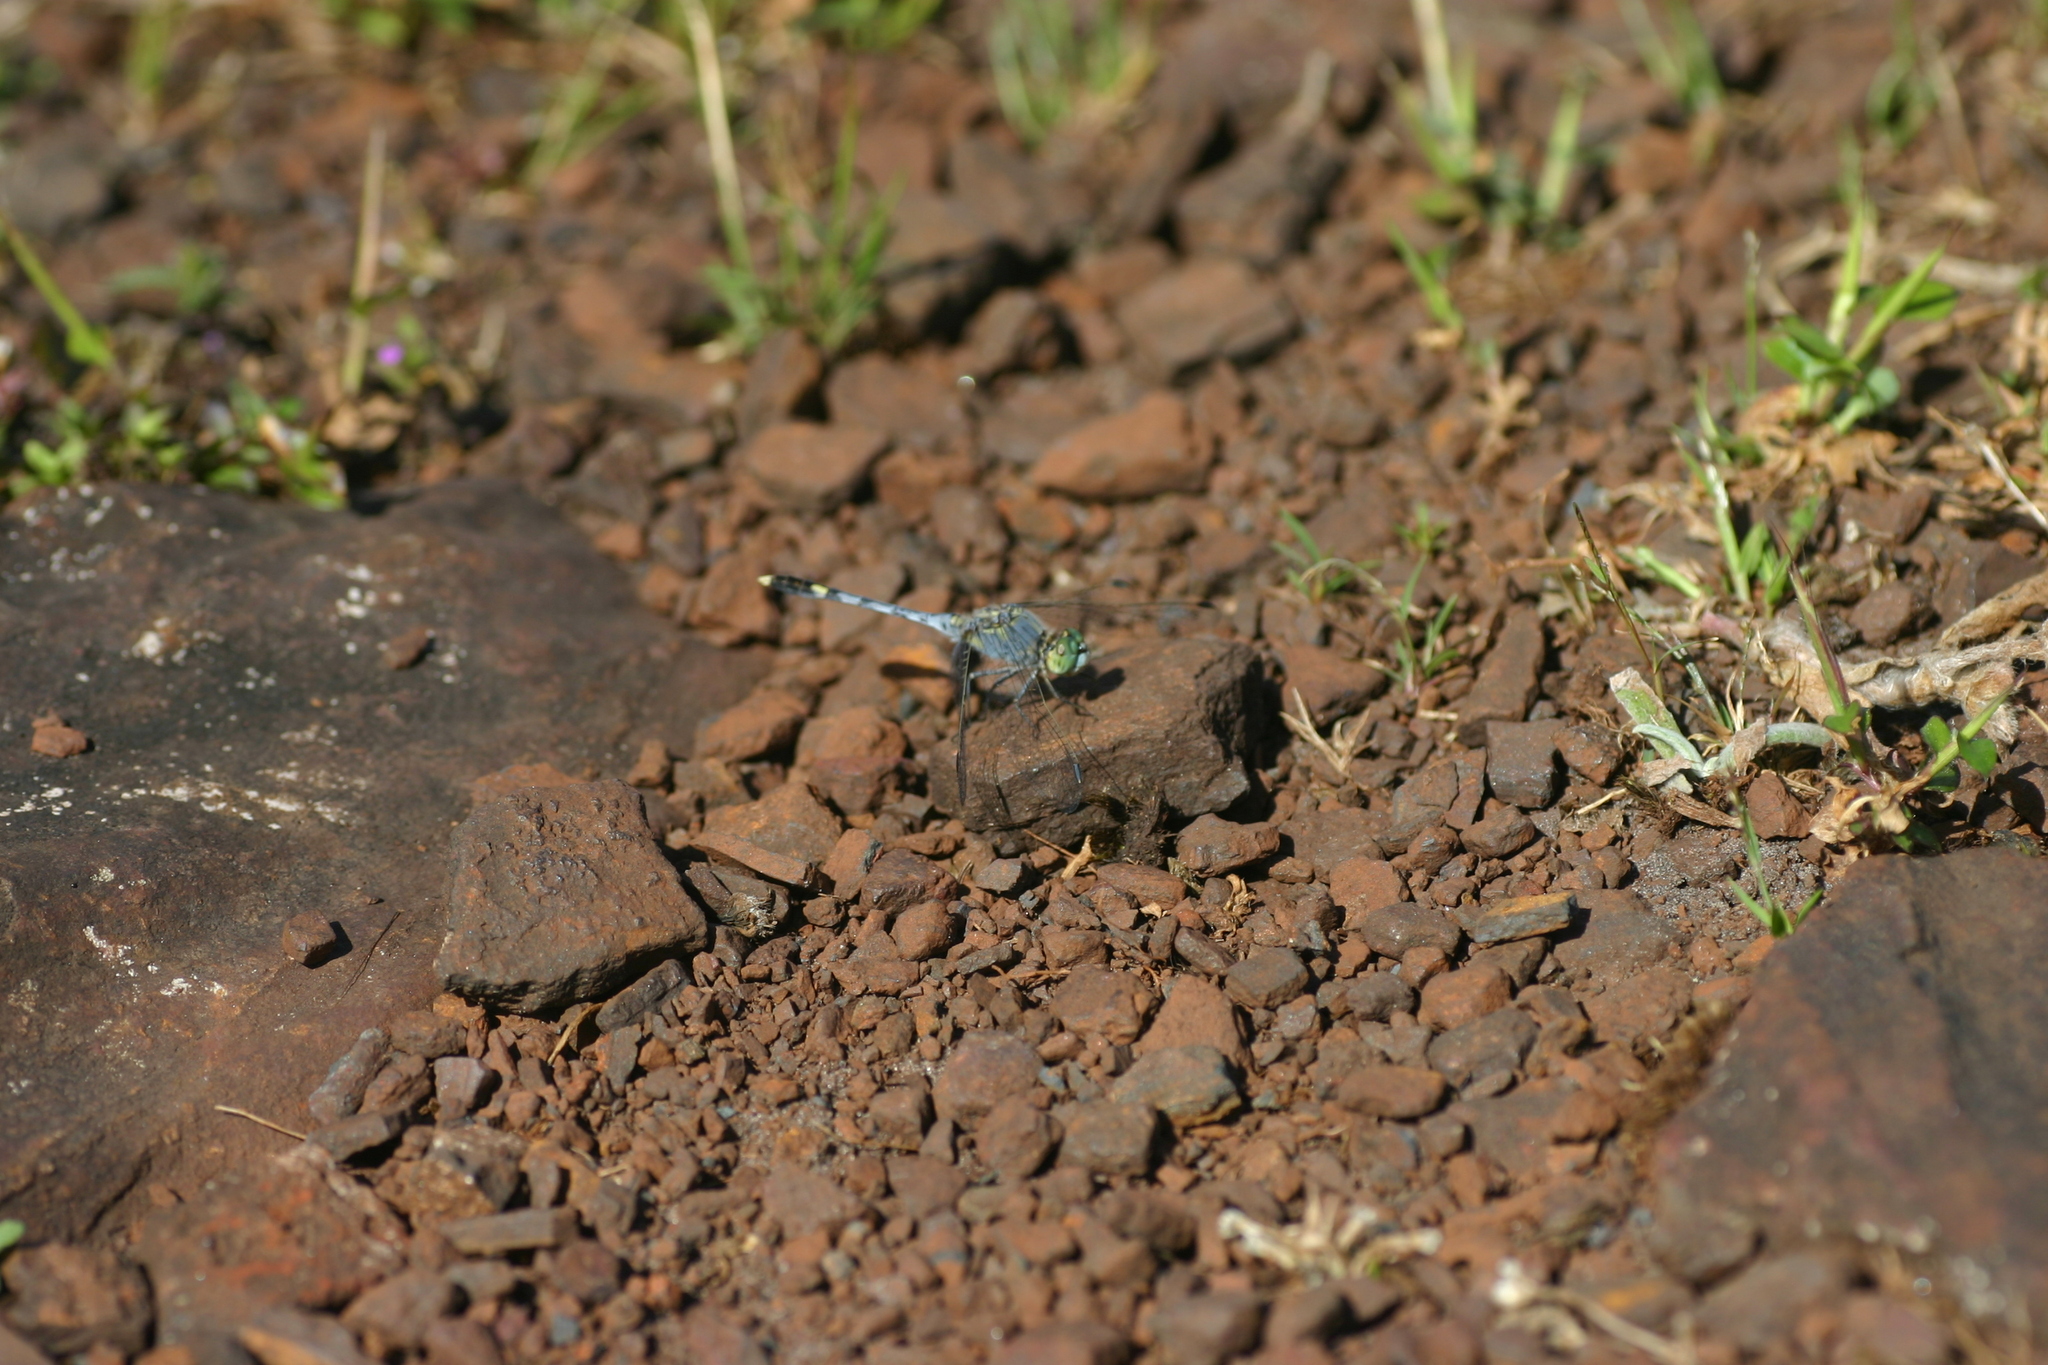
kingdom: Animalia
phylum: Arthropoda
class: Insecta
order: Odonata
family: Libellulidae
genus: Diplacodes
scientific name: Diplacodes trivialis
